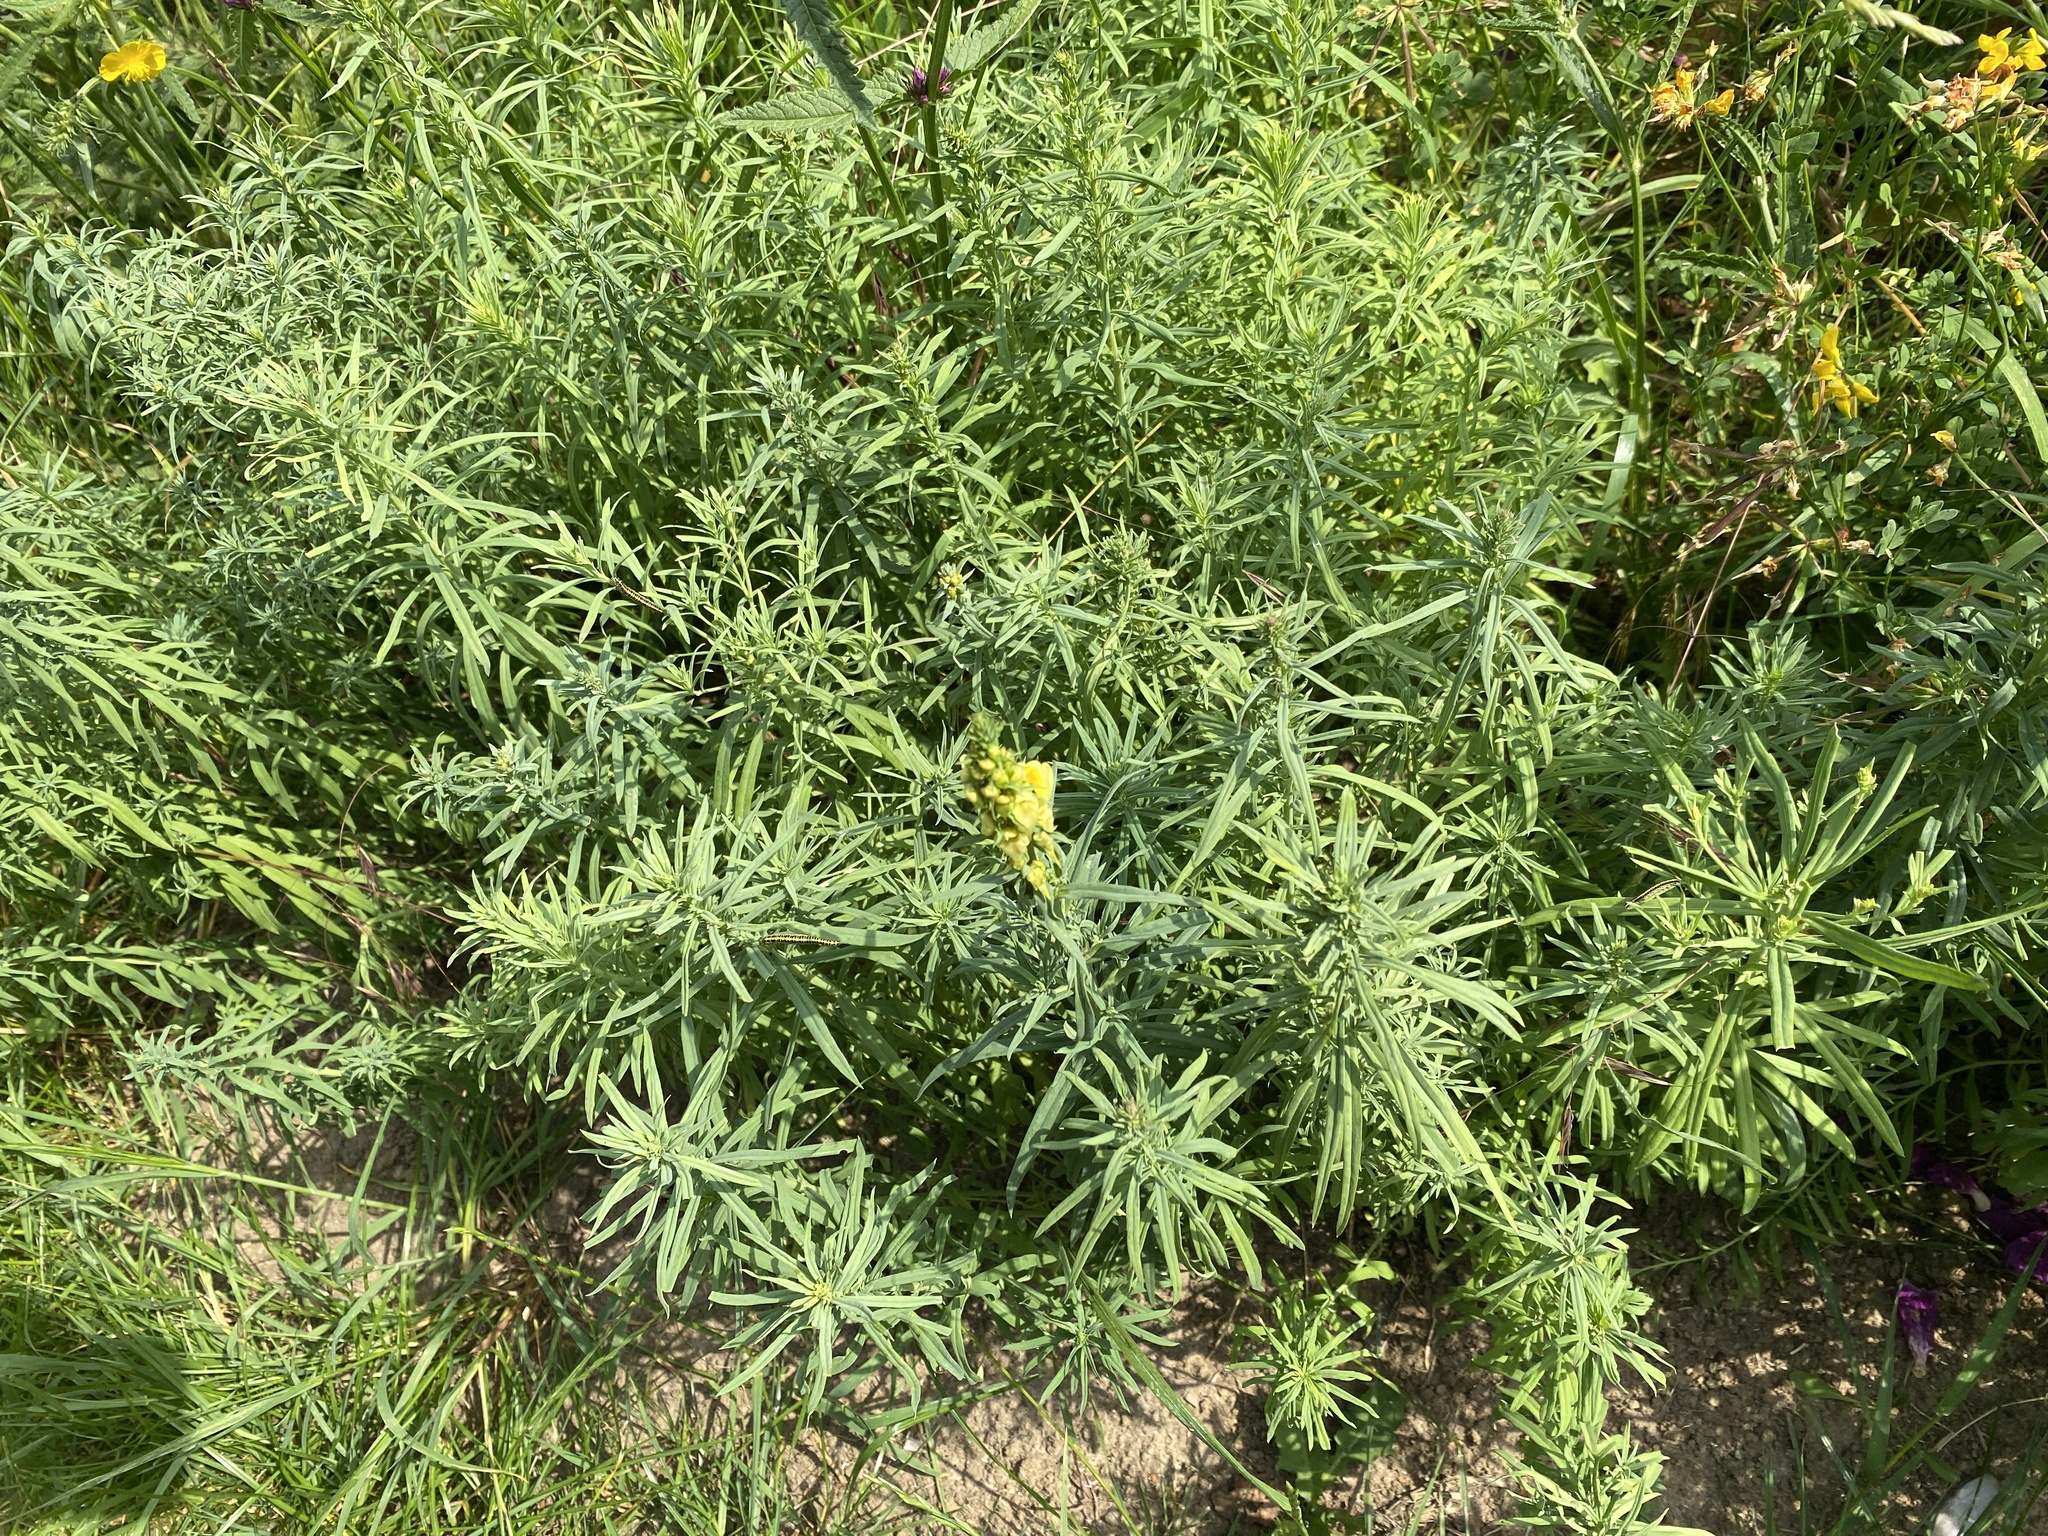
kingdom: Plantae
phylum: Tracheophyta
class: Magnoliopsida
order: Lamiales
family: Plantaginaceae
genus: Linaria
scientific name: Linaria vulgaris
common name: Butter and eggs
